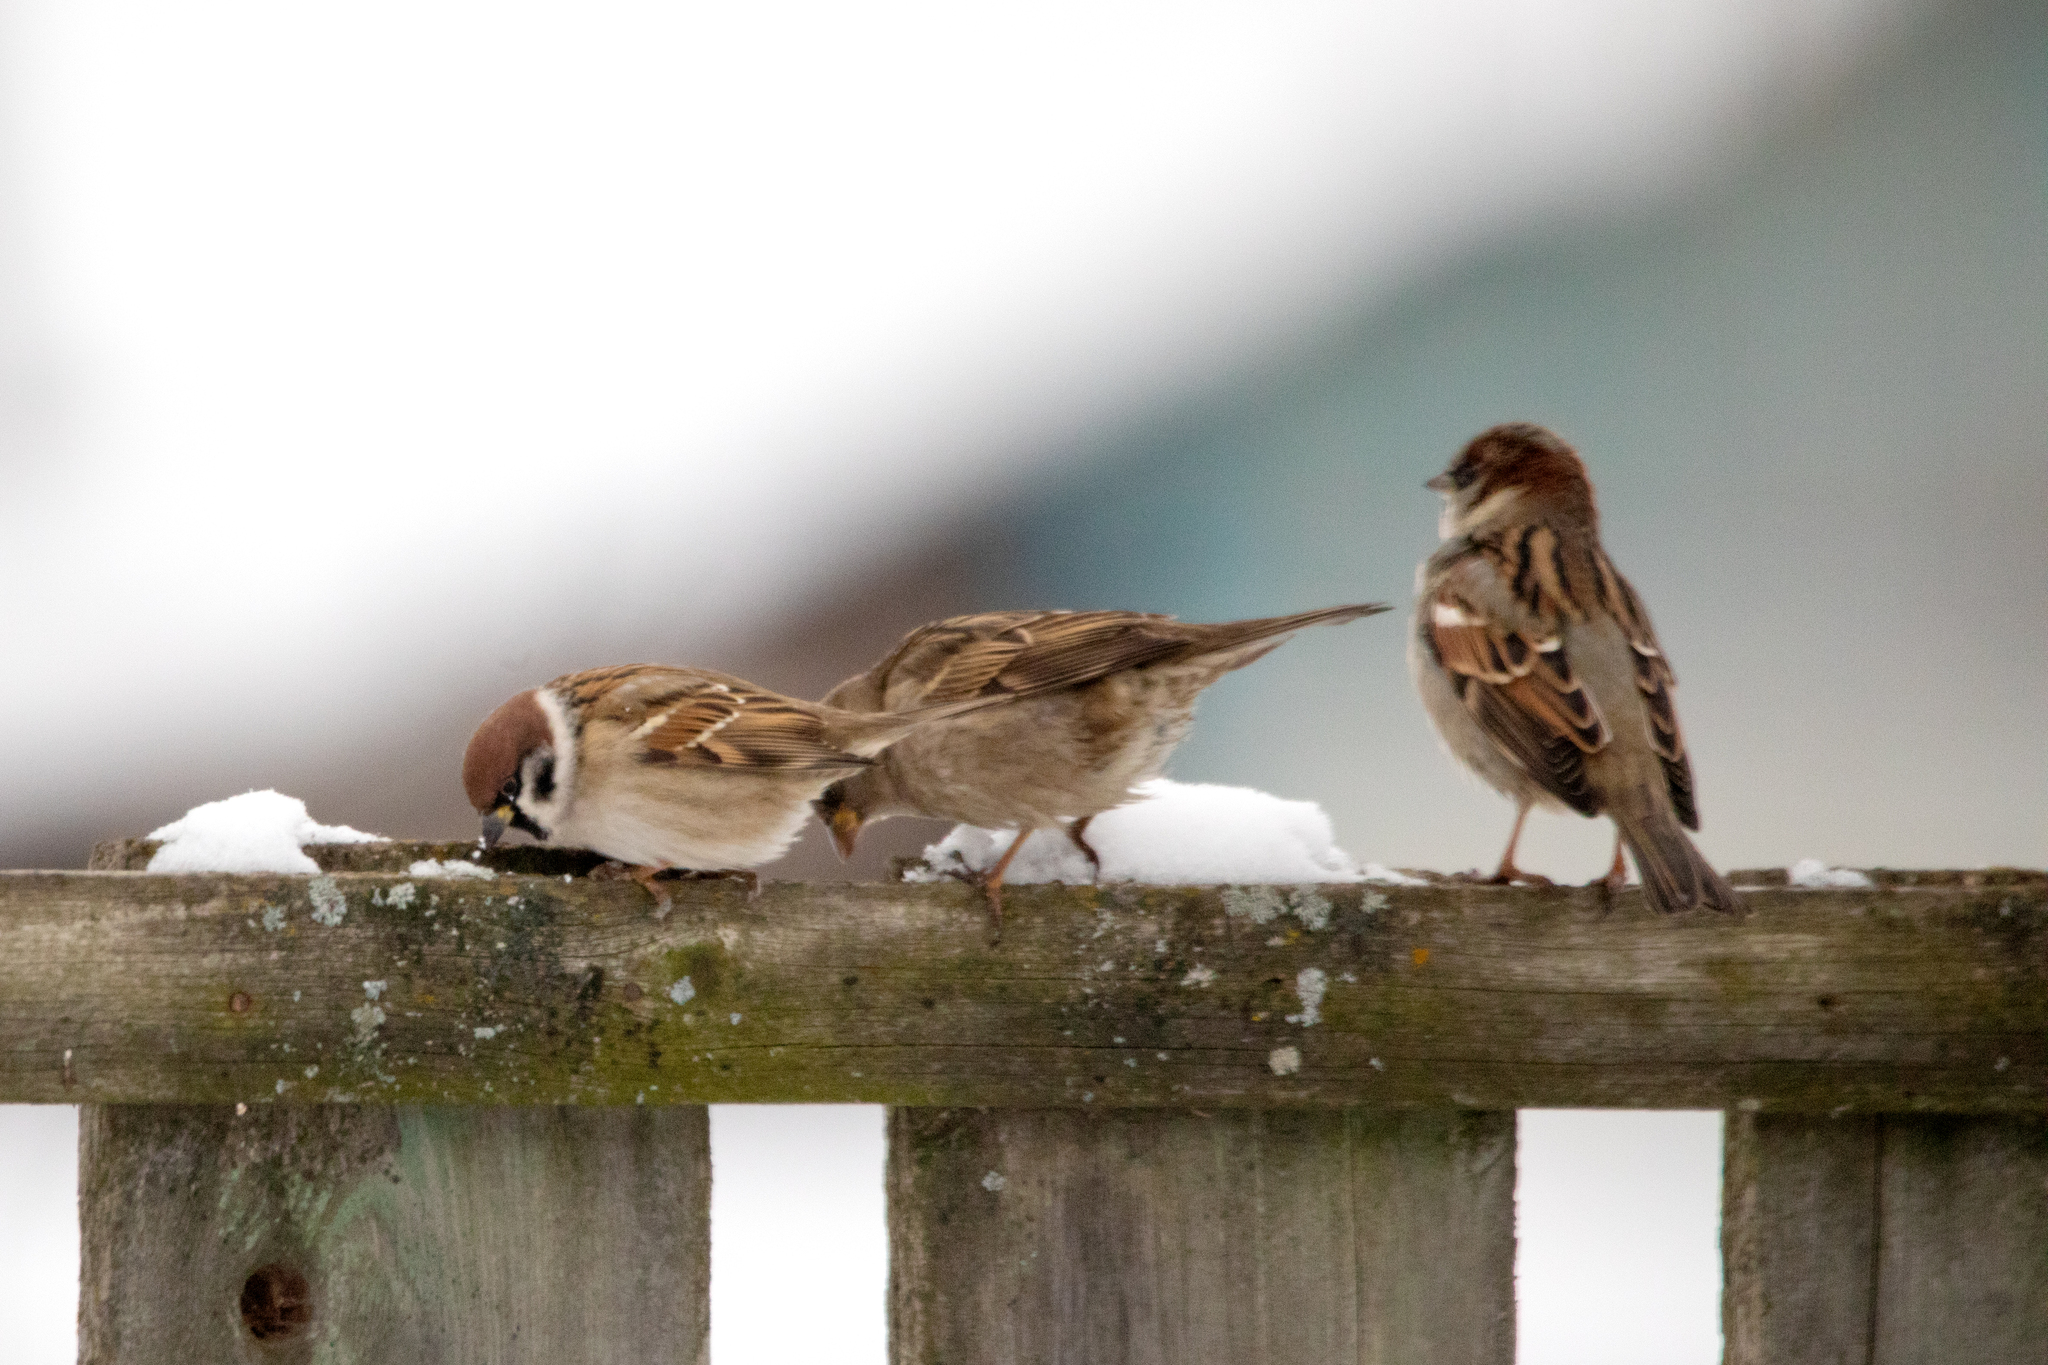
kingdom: Animalia
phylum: Chordata
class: Aves
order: Passeriformes
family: Passeridae
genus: Passer
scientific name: Passer montanus
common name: Eurasian tree sparrow
